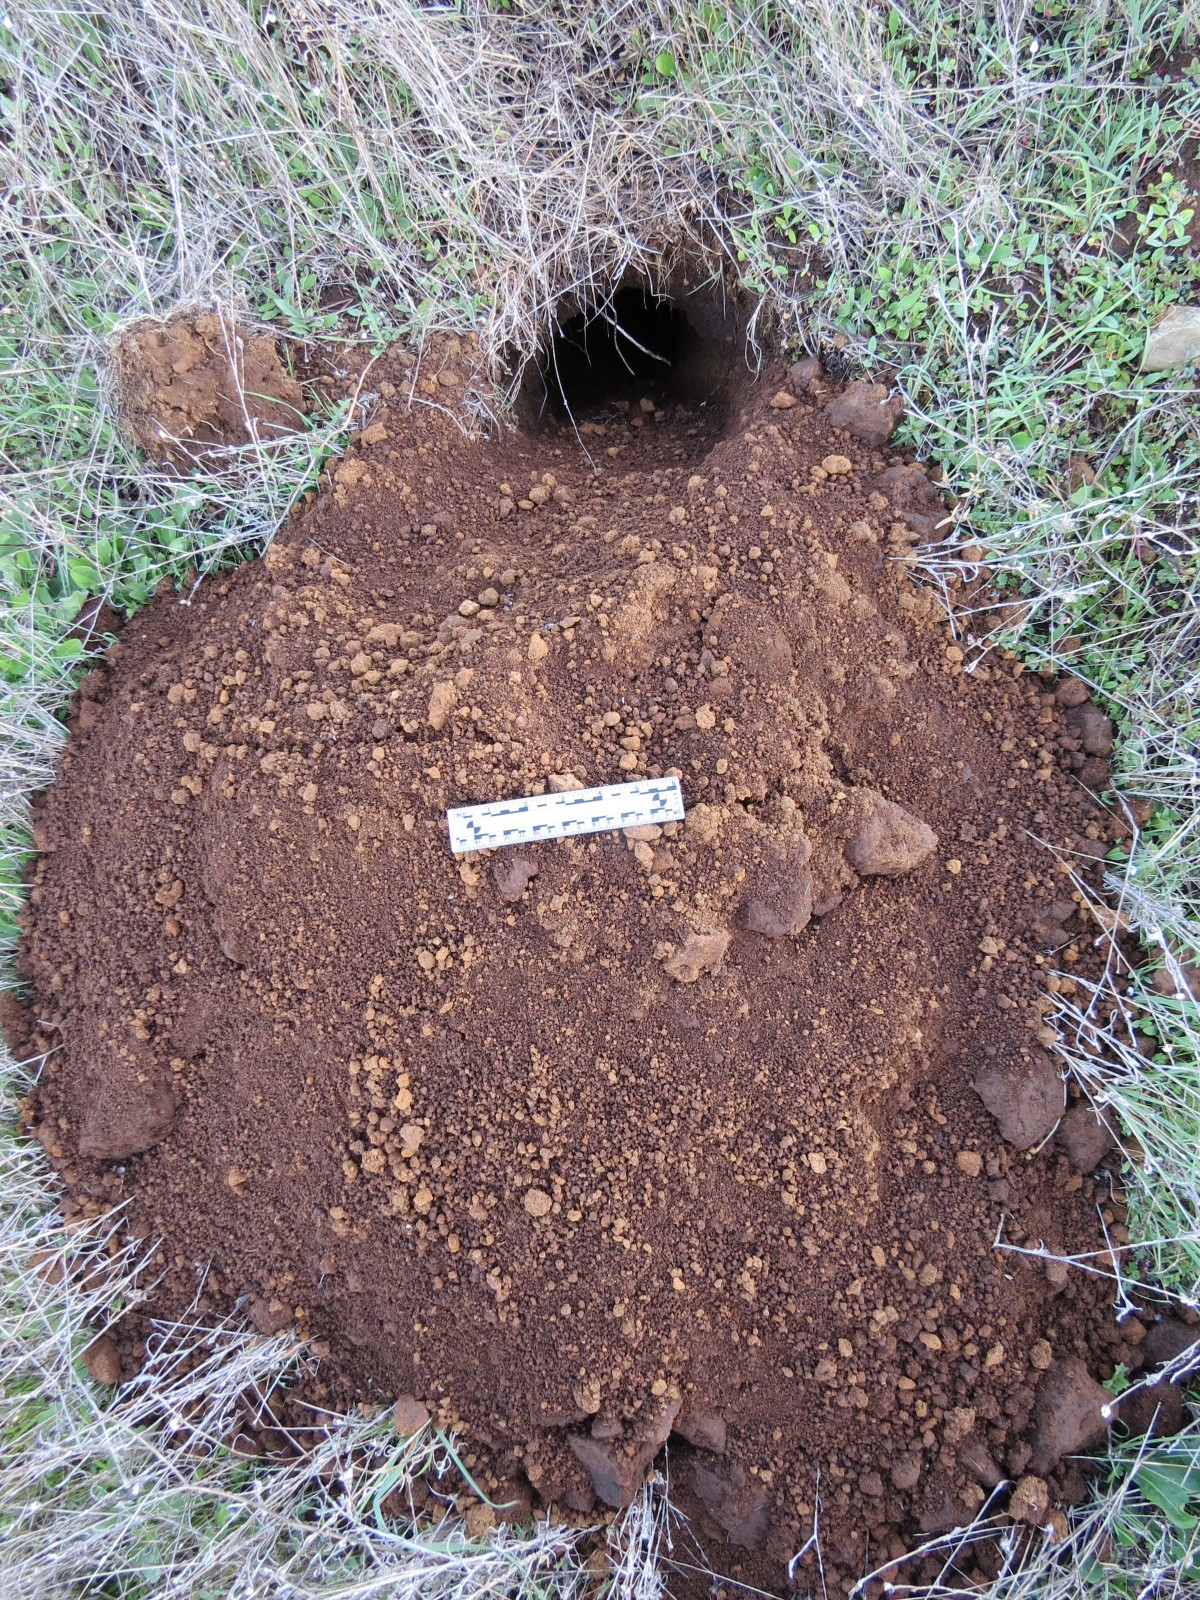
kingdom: Animalia
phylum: Chordata
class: Mammalia
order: Carnivora
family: Mustelidae
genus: Taxidea
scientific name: Taxidea taxus
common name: American badger
